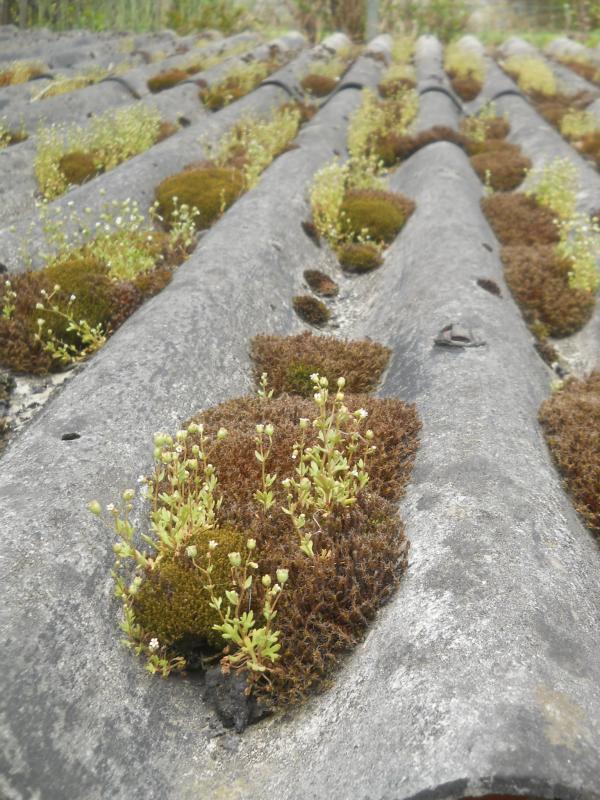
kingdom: Plantae
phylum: Tracheophyta
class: Magnoliopsida
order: Saxifragales
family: Saxifragaceae
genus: Saxifraga
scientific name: Saxifraga tridactylites
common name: Rue-leaved saxifrage
